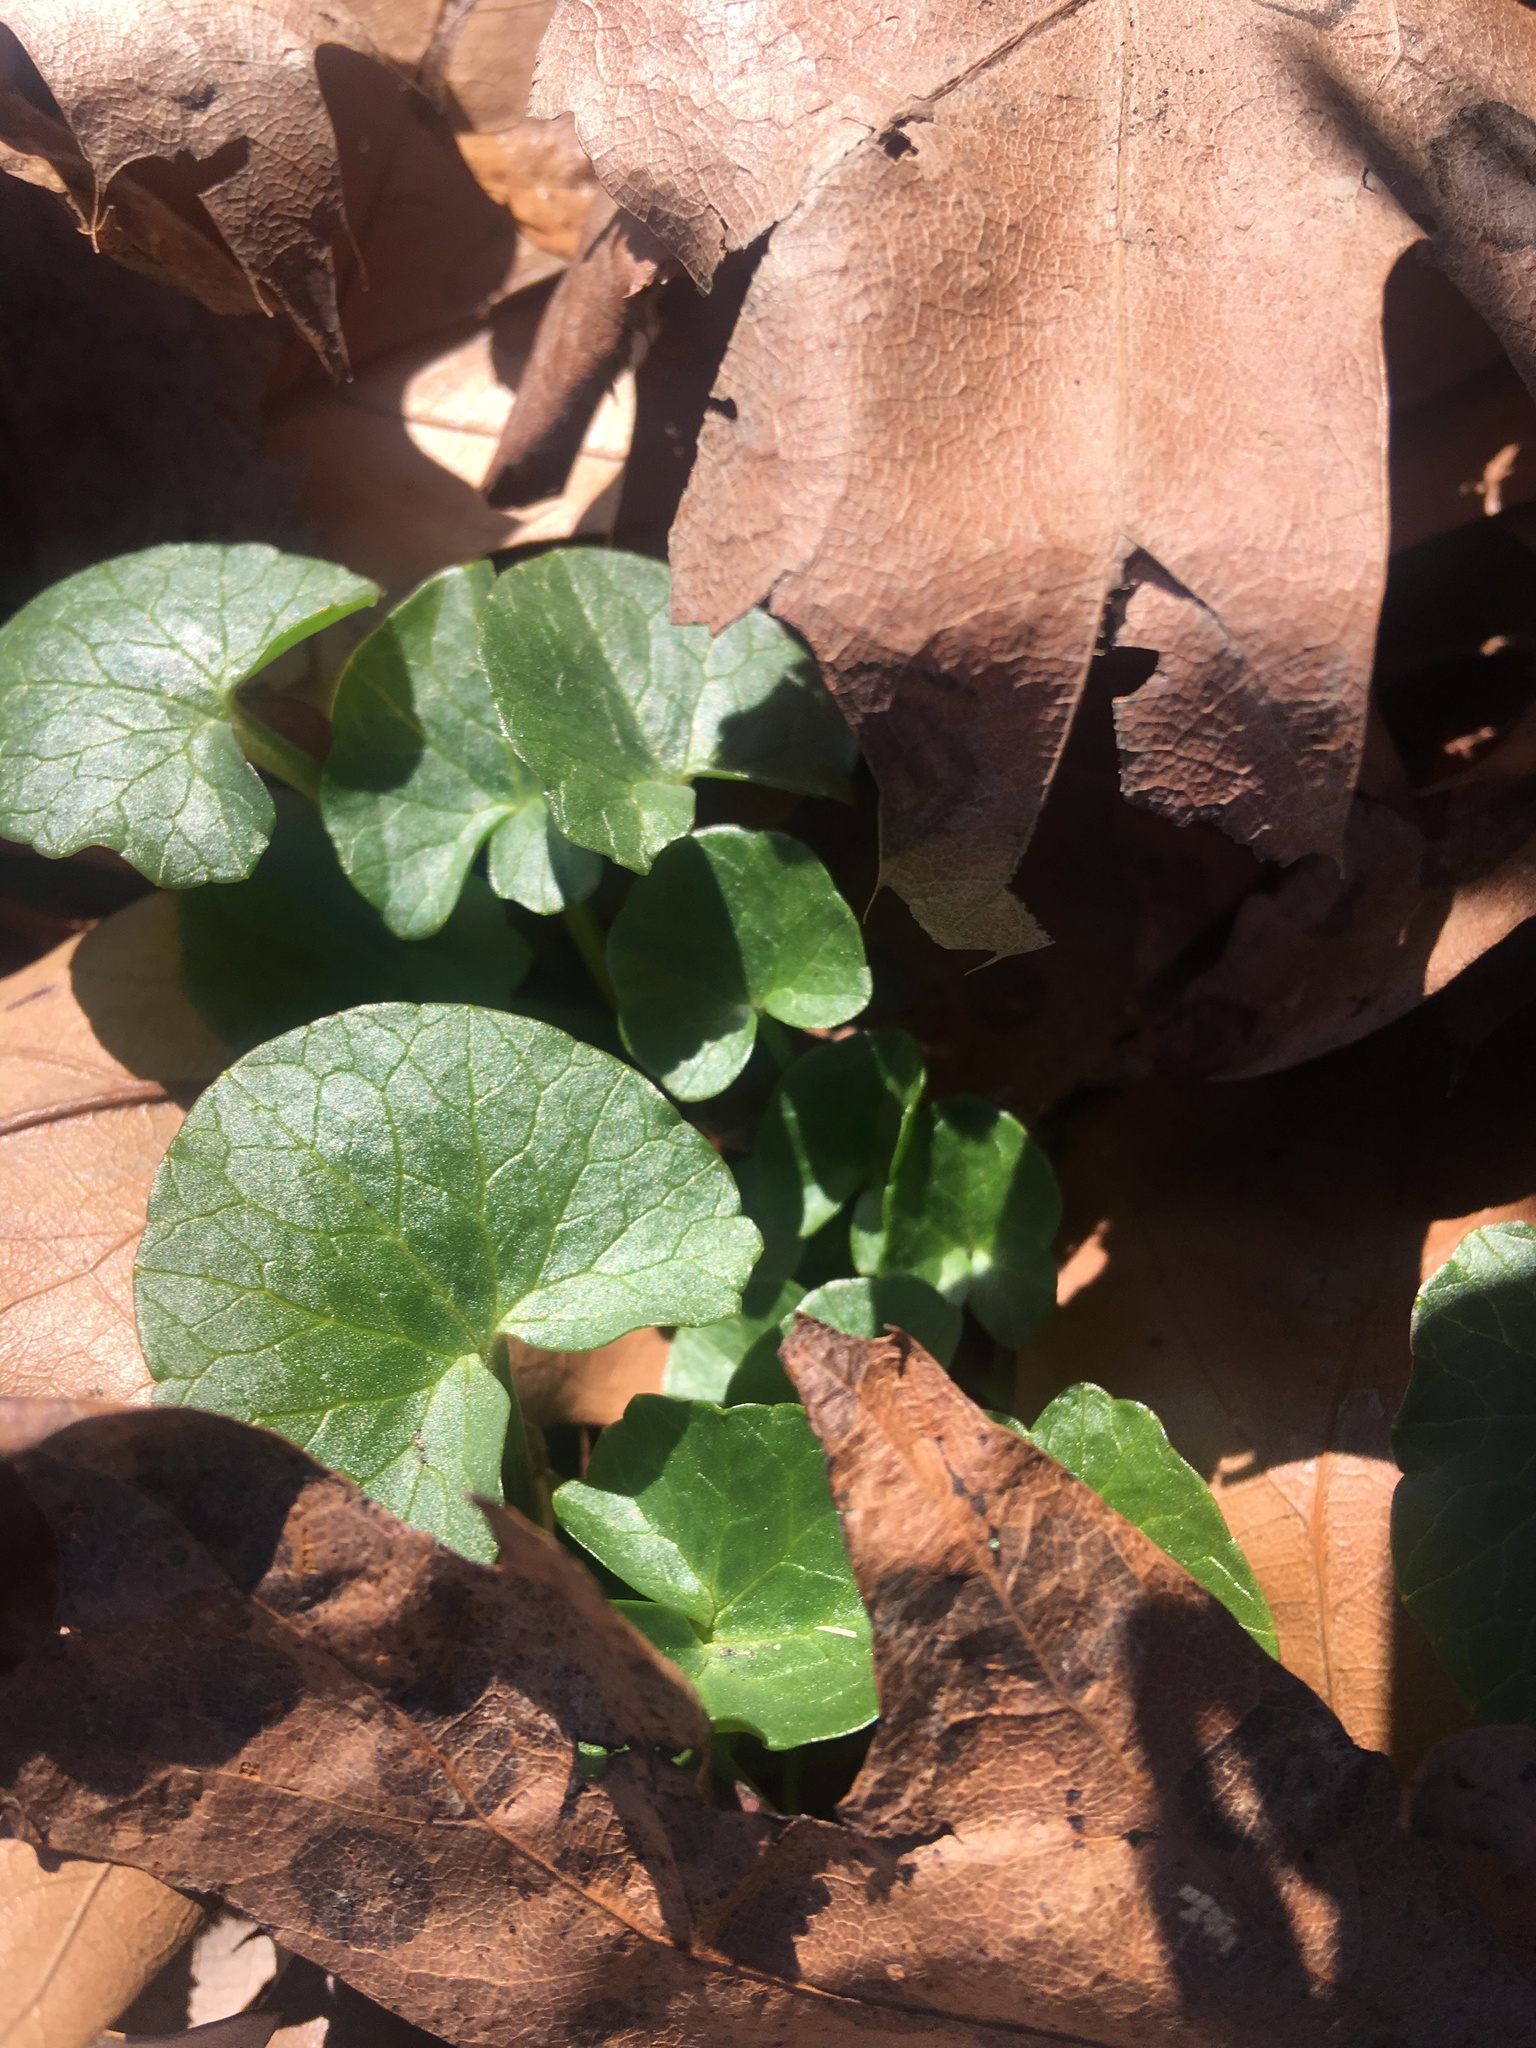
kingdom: Plantae
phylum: Tracheophyta
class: Magnoliopsida
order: Ranunculales
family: Ranunculaceae
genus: Ficaria
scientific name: Ficaria verna
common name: Lesser celandine
